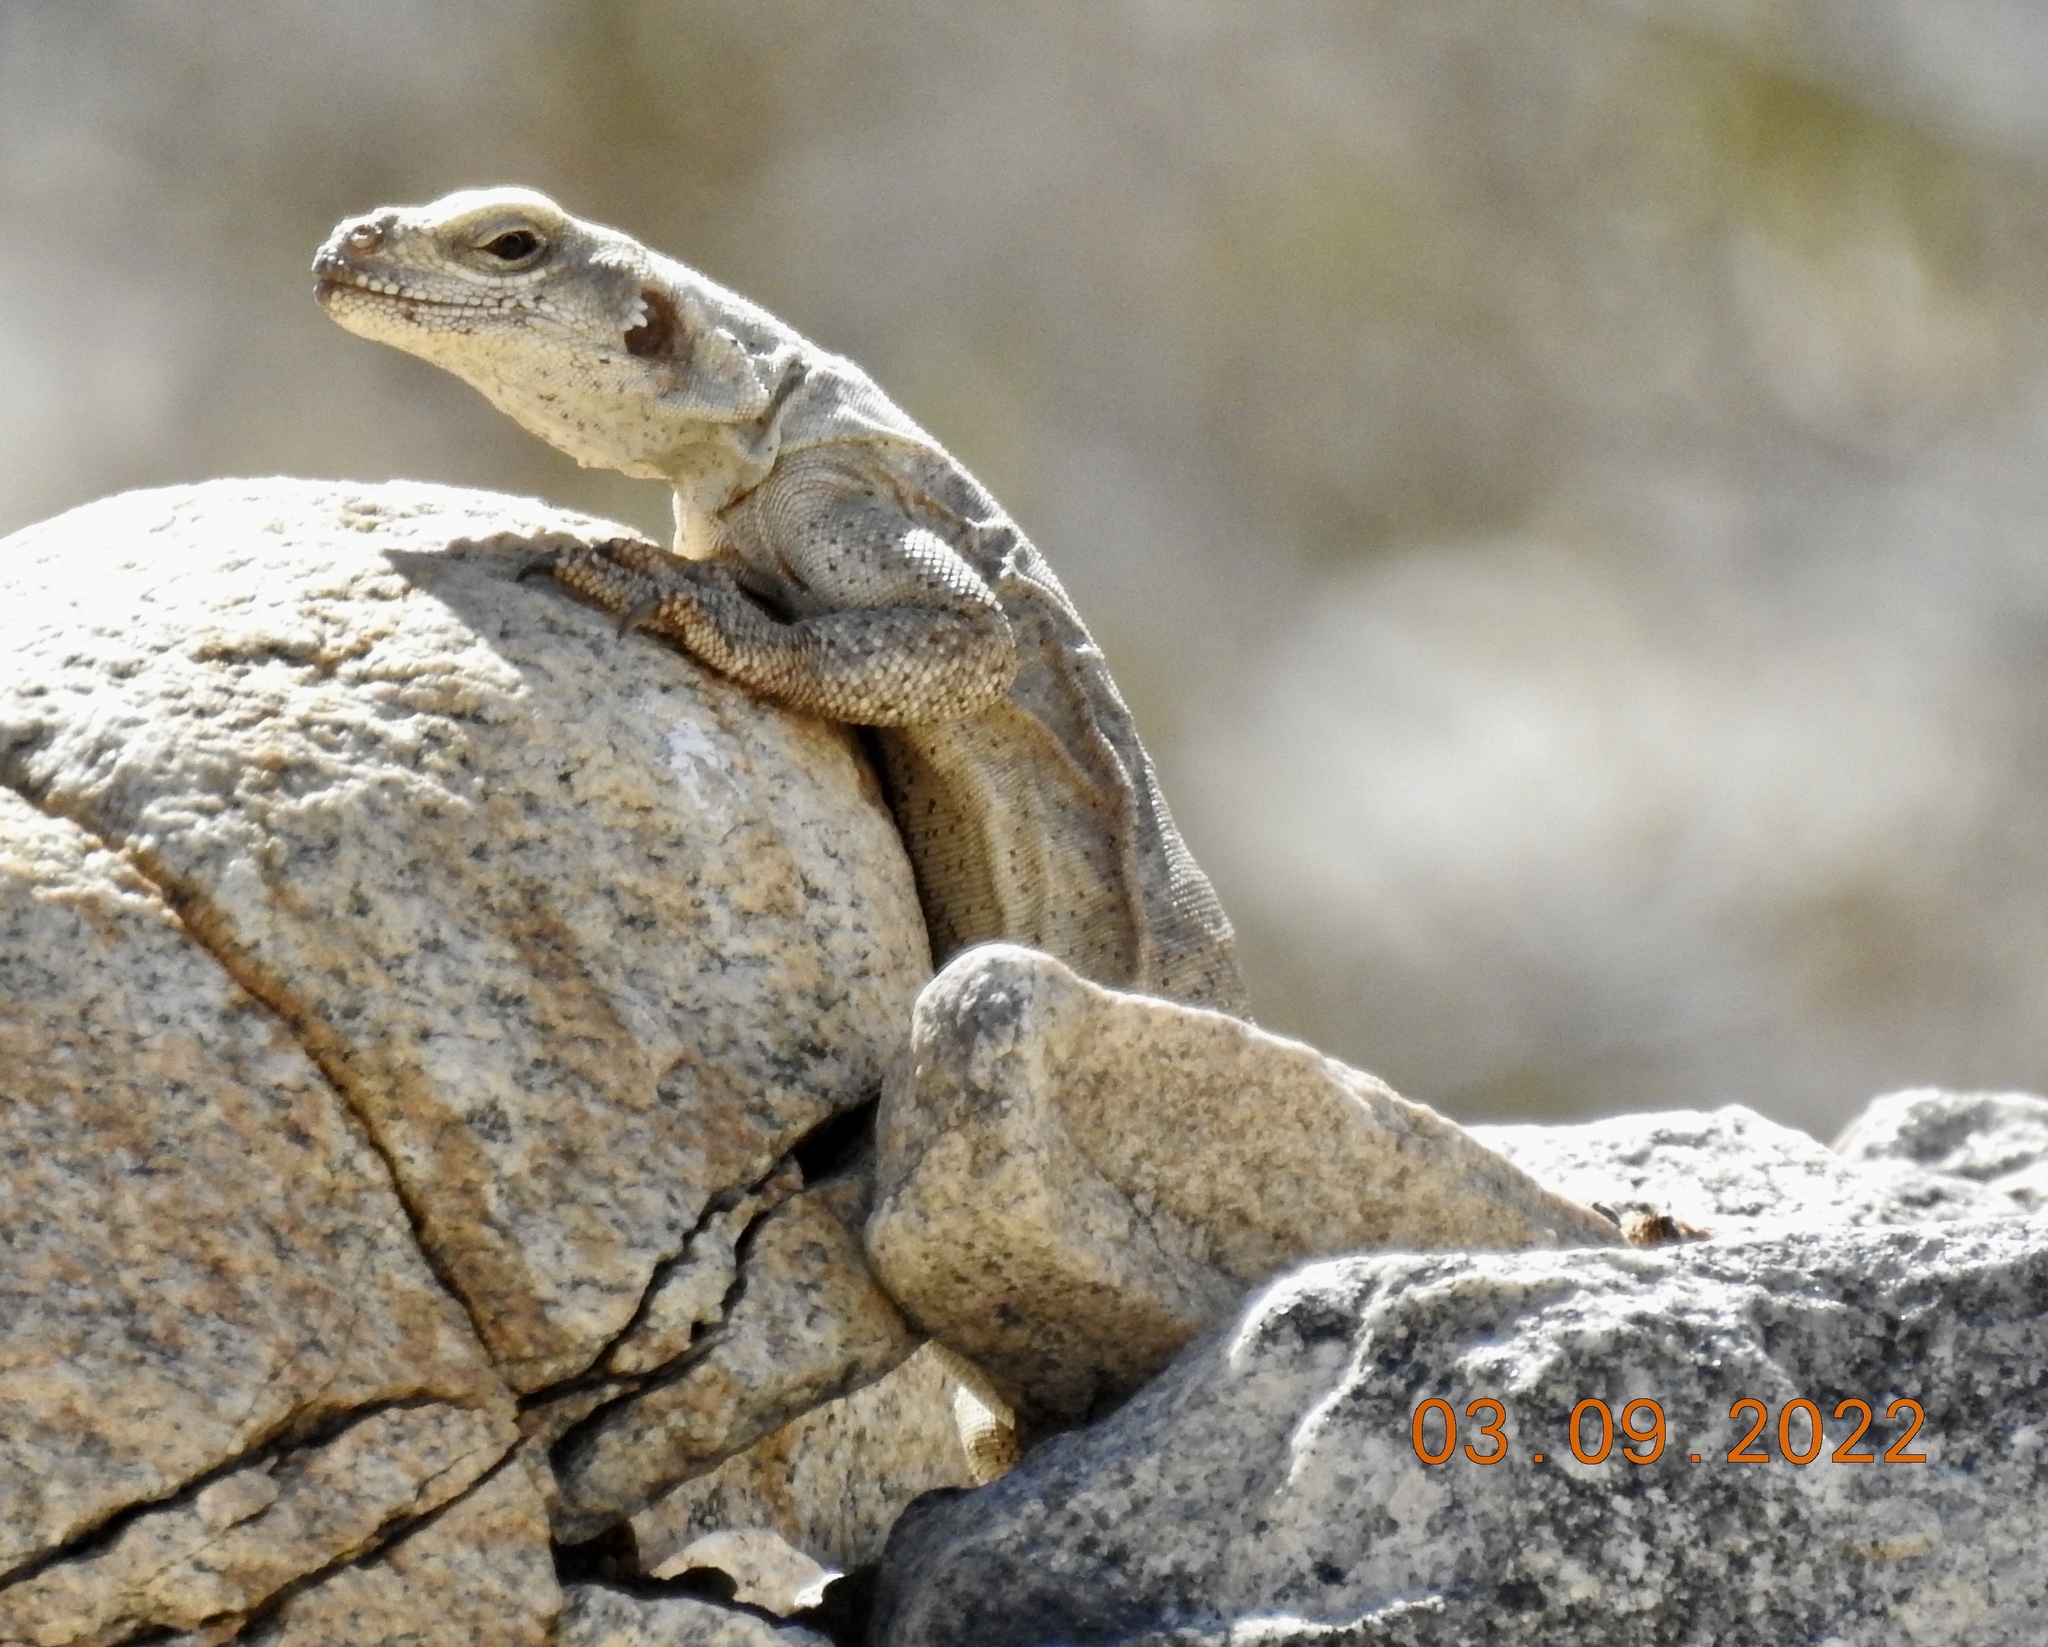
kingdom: Animalia
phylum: Chordata
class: Squamata
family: Iguanidae
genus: Sauromalus
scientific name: Sauromalus ater
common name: Northern chuckwalla
